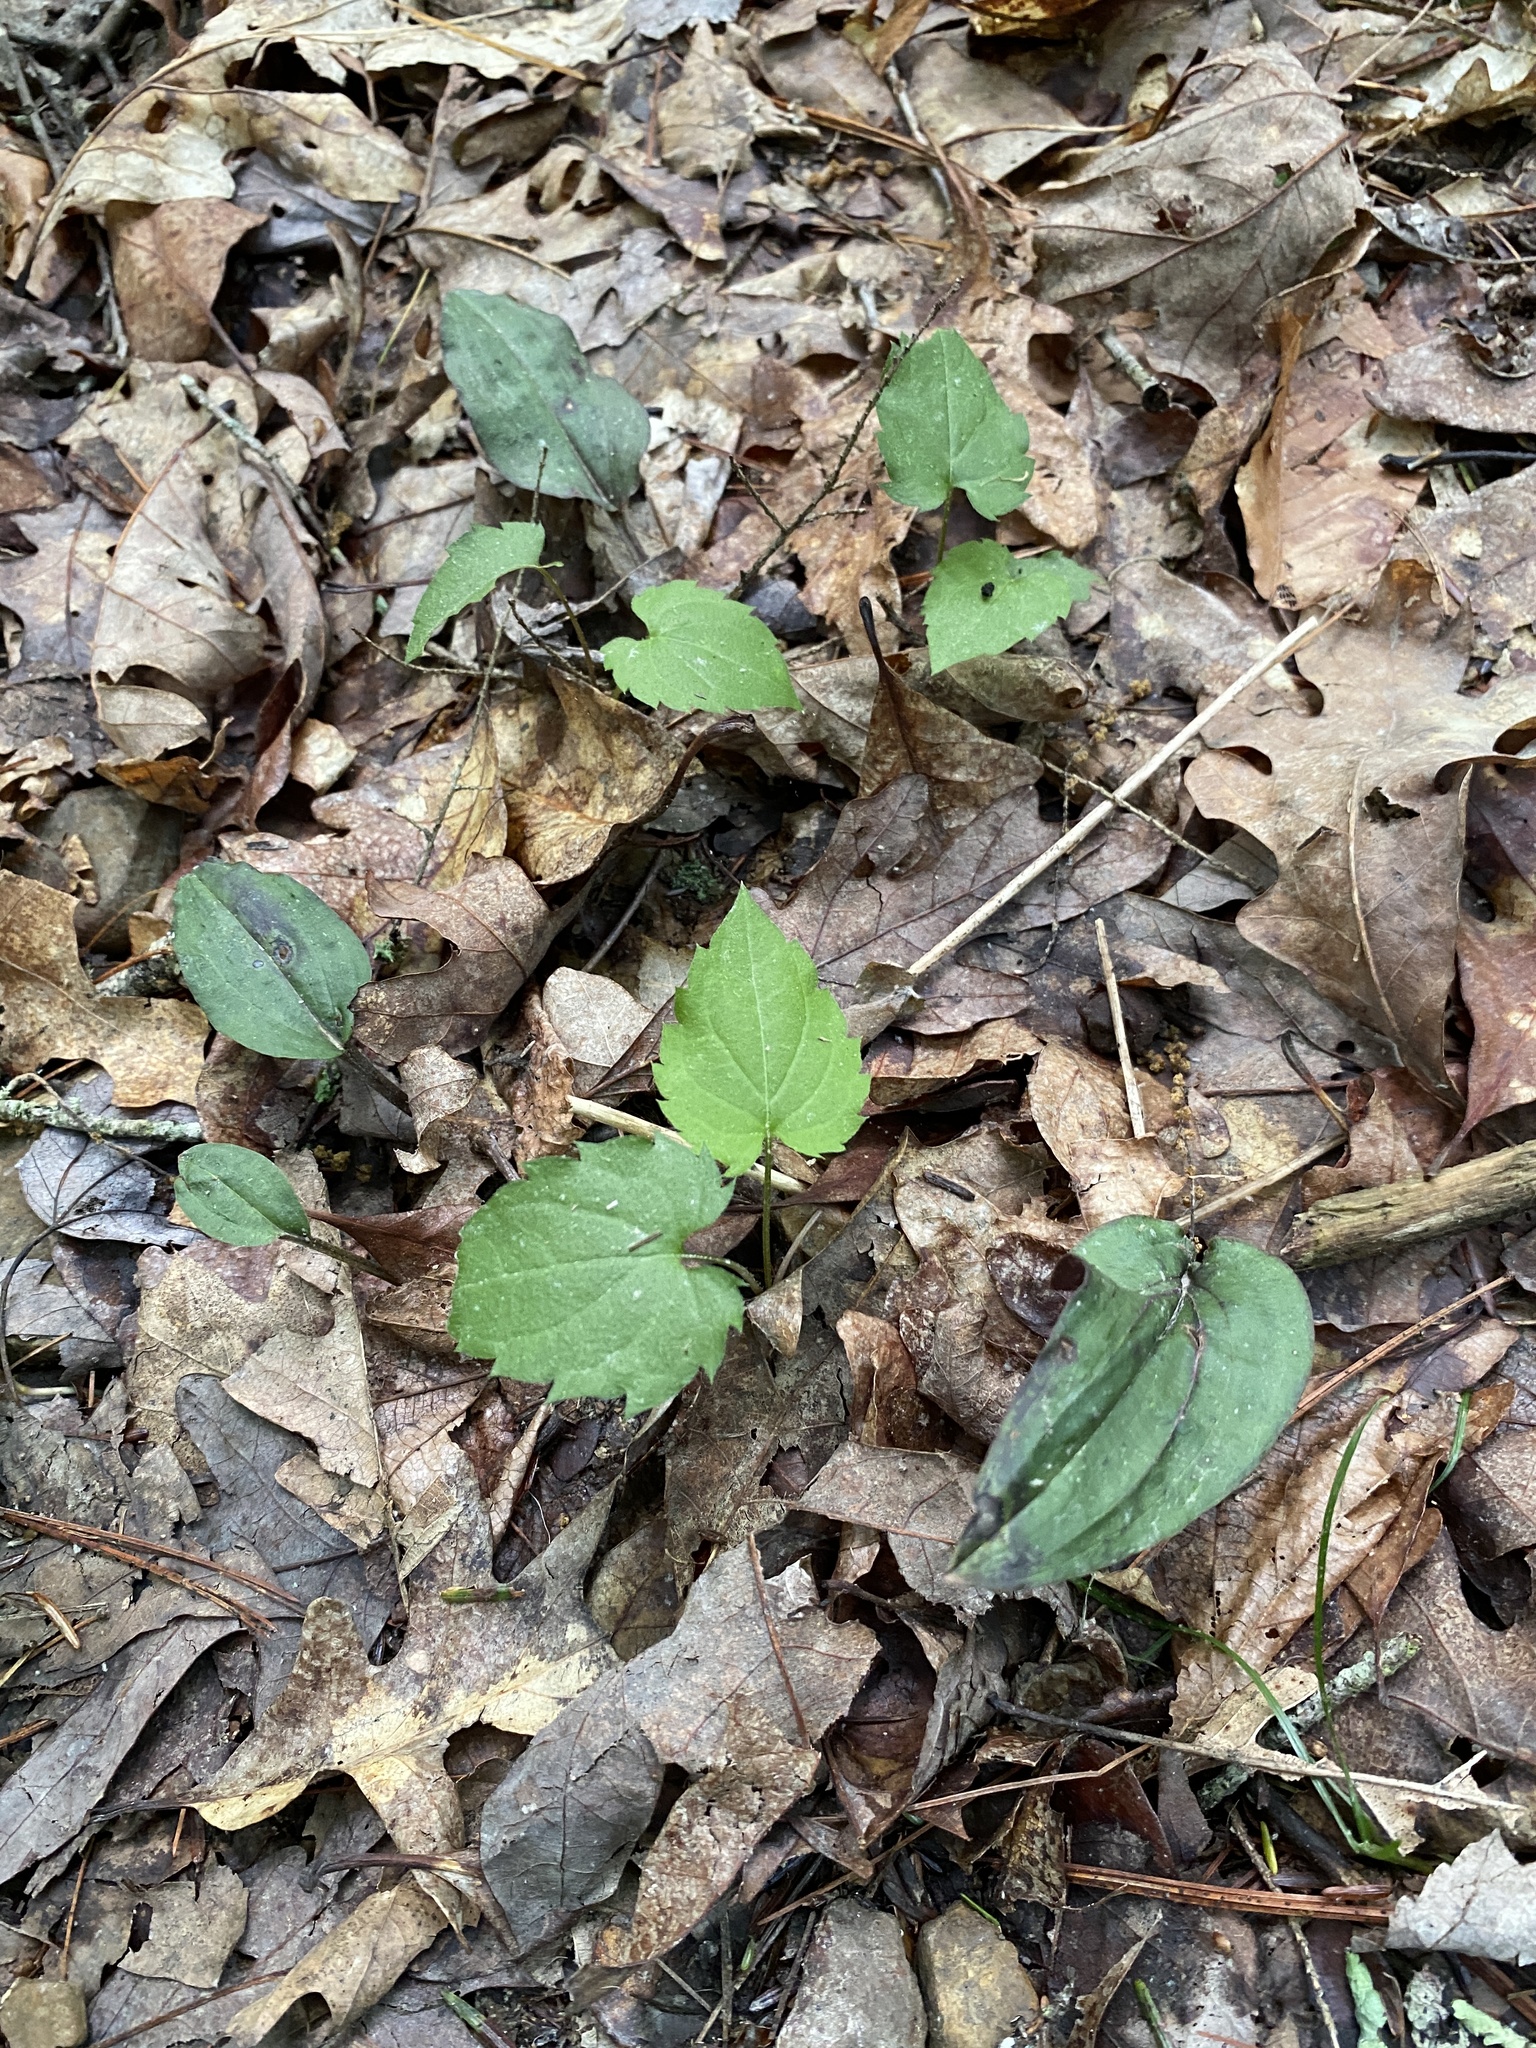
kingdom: Plantae
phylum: Tracheophyta
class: Liliopsida
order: Asparagales
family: Orchidaceae
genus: Tipularia
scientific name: Tipularia discolor
